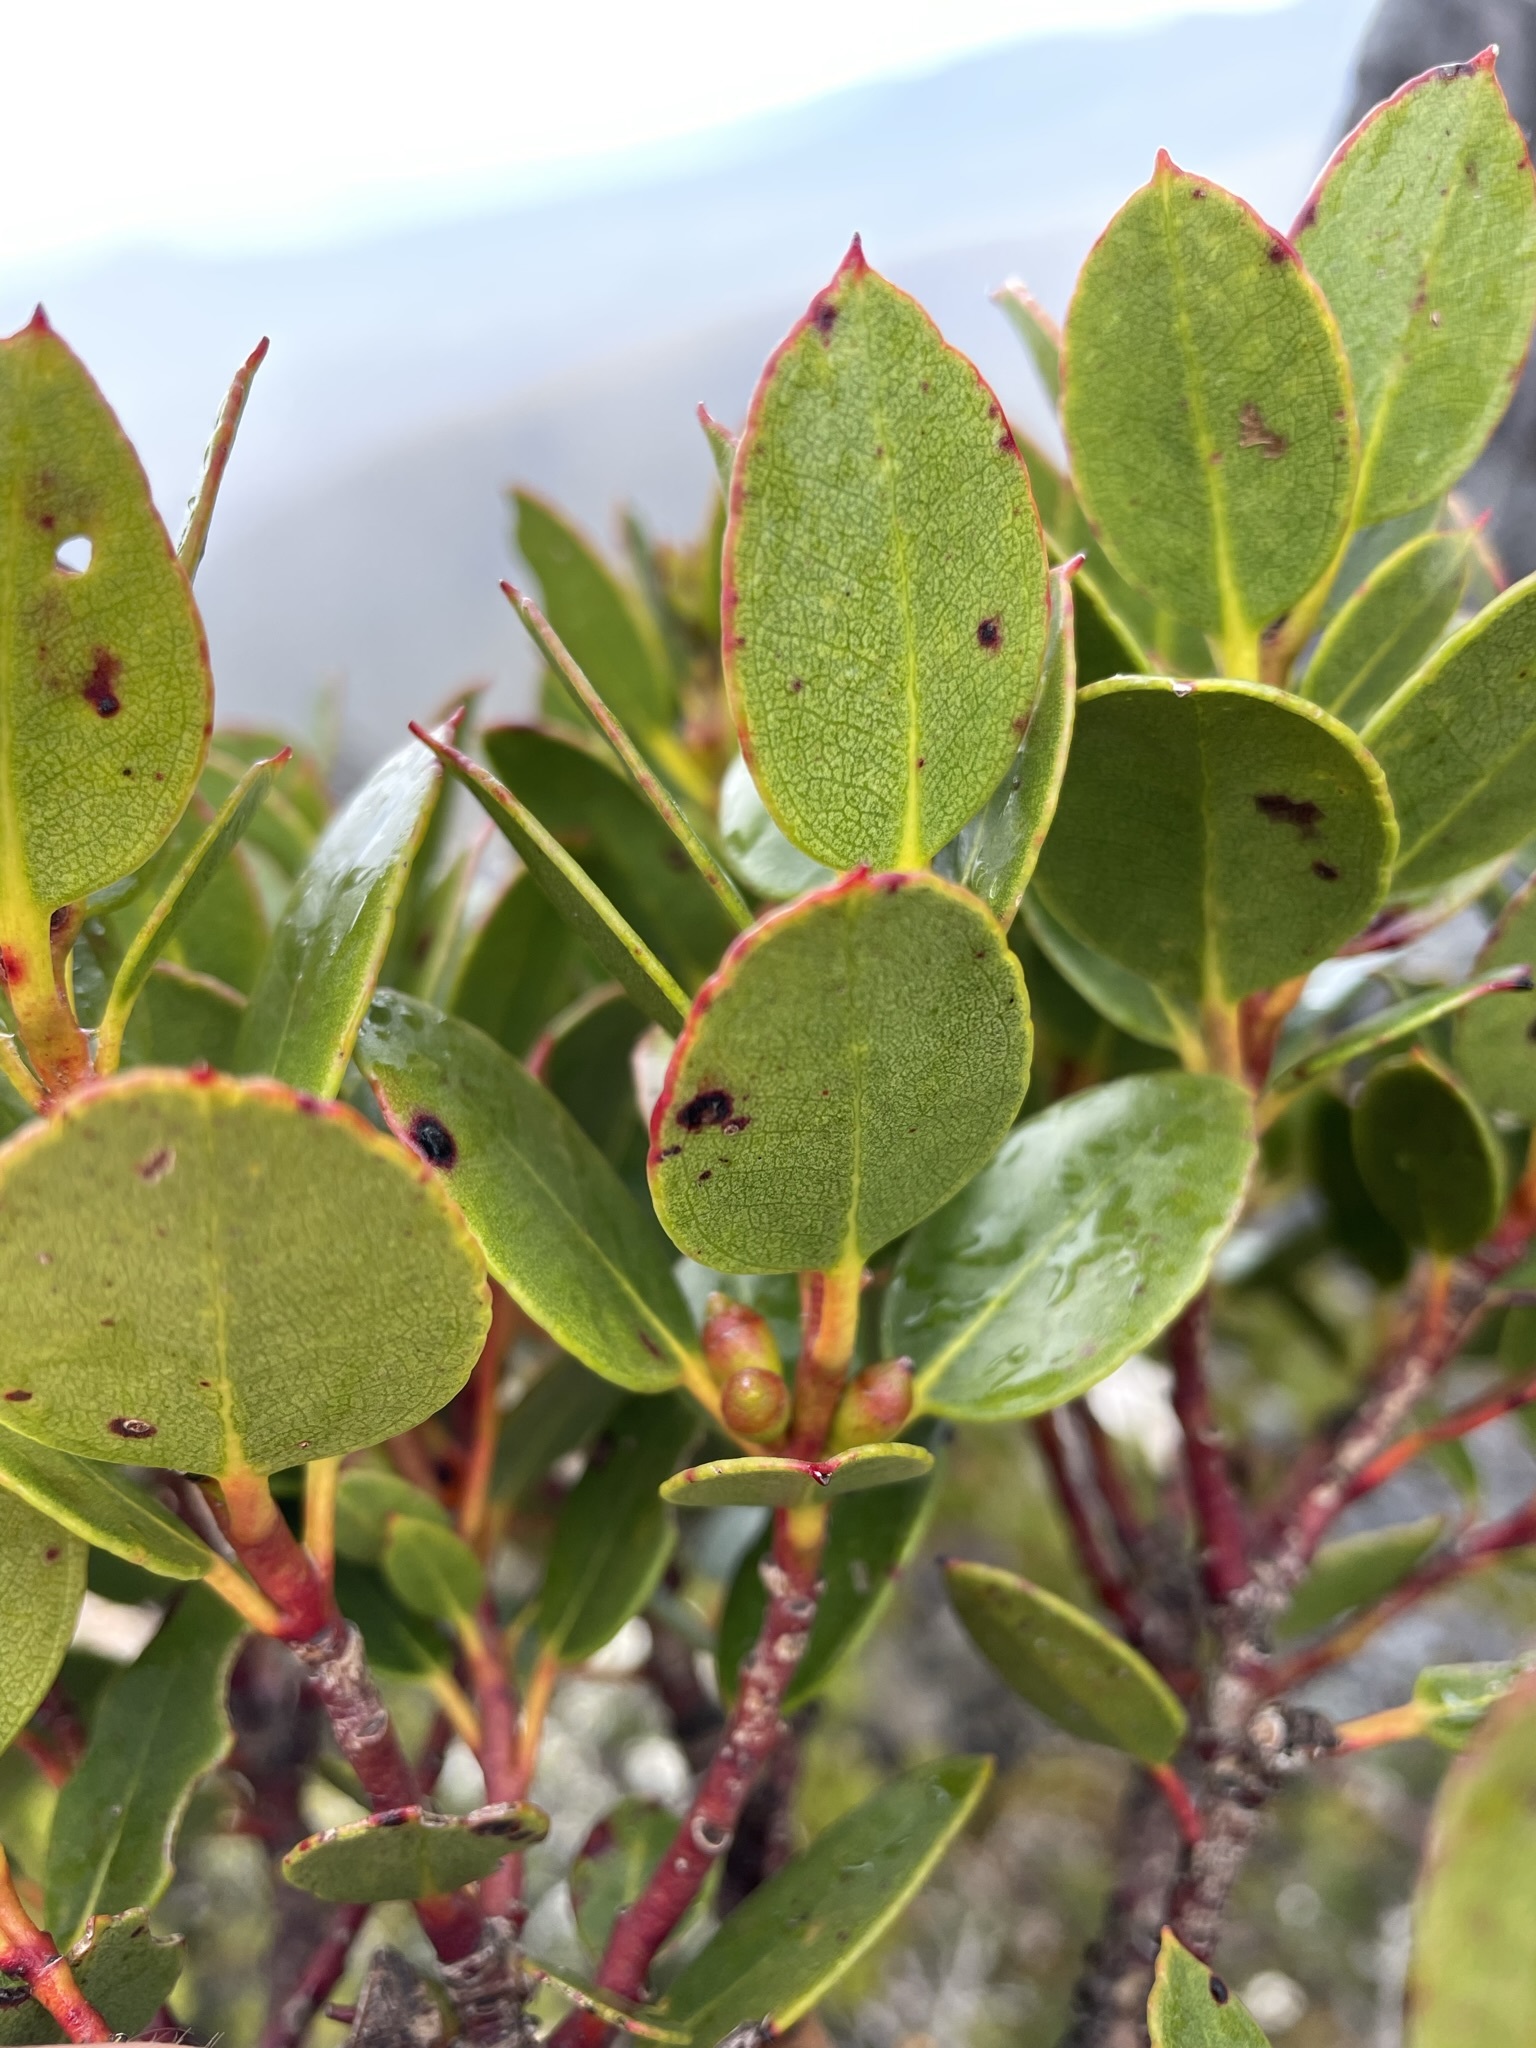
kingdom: Plantae
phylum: Tracheophyta
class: Magnoliopsida
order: Myrtales
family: Myrtaceae
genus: Eucalyptus
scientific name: Eucalyptus vernicosa
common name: Varnished gum
